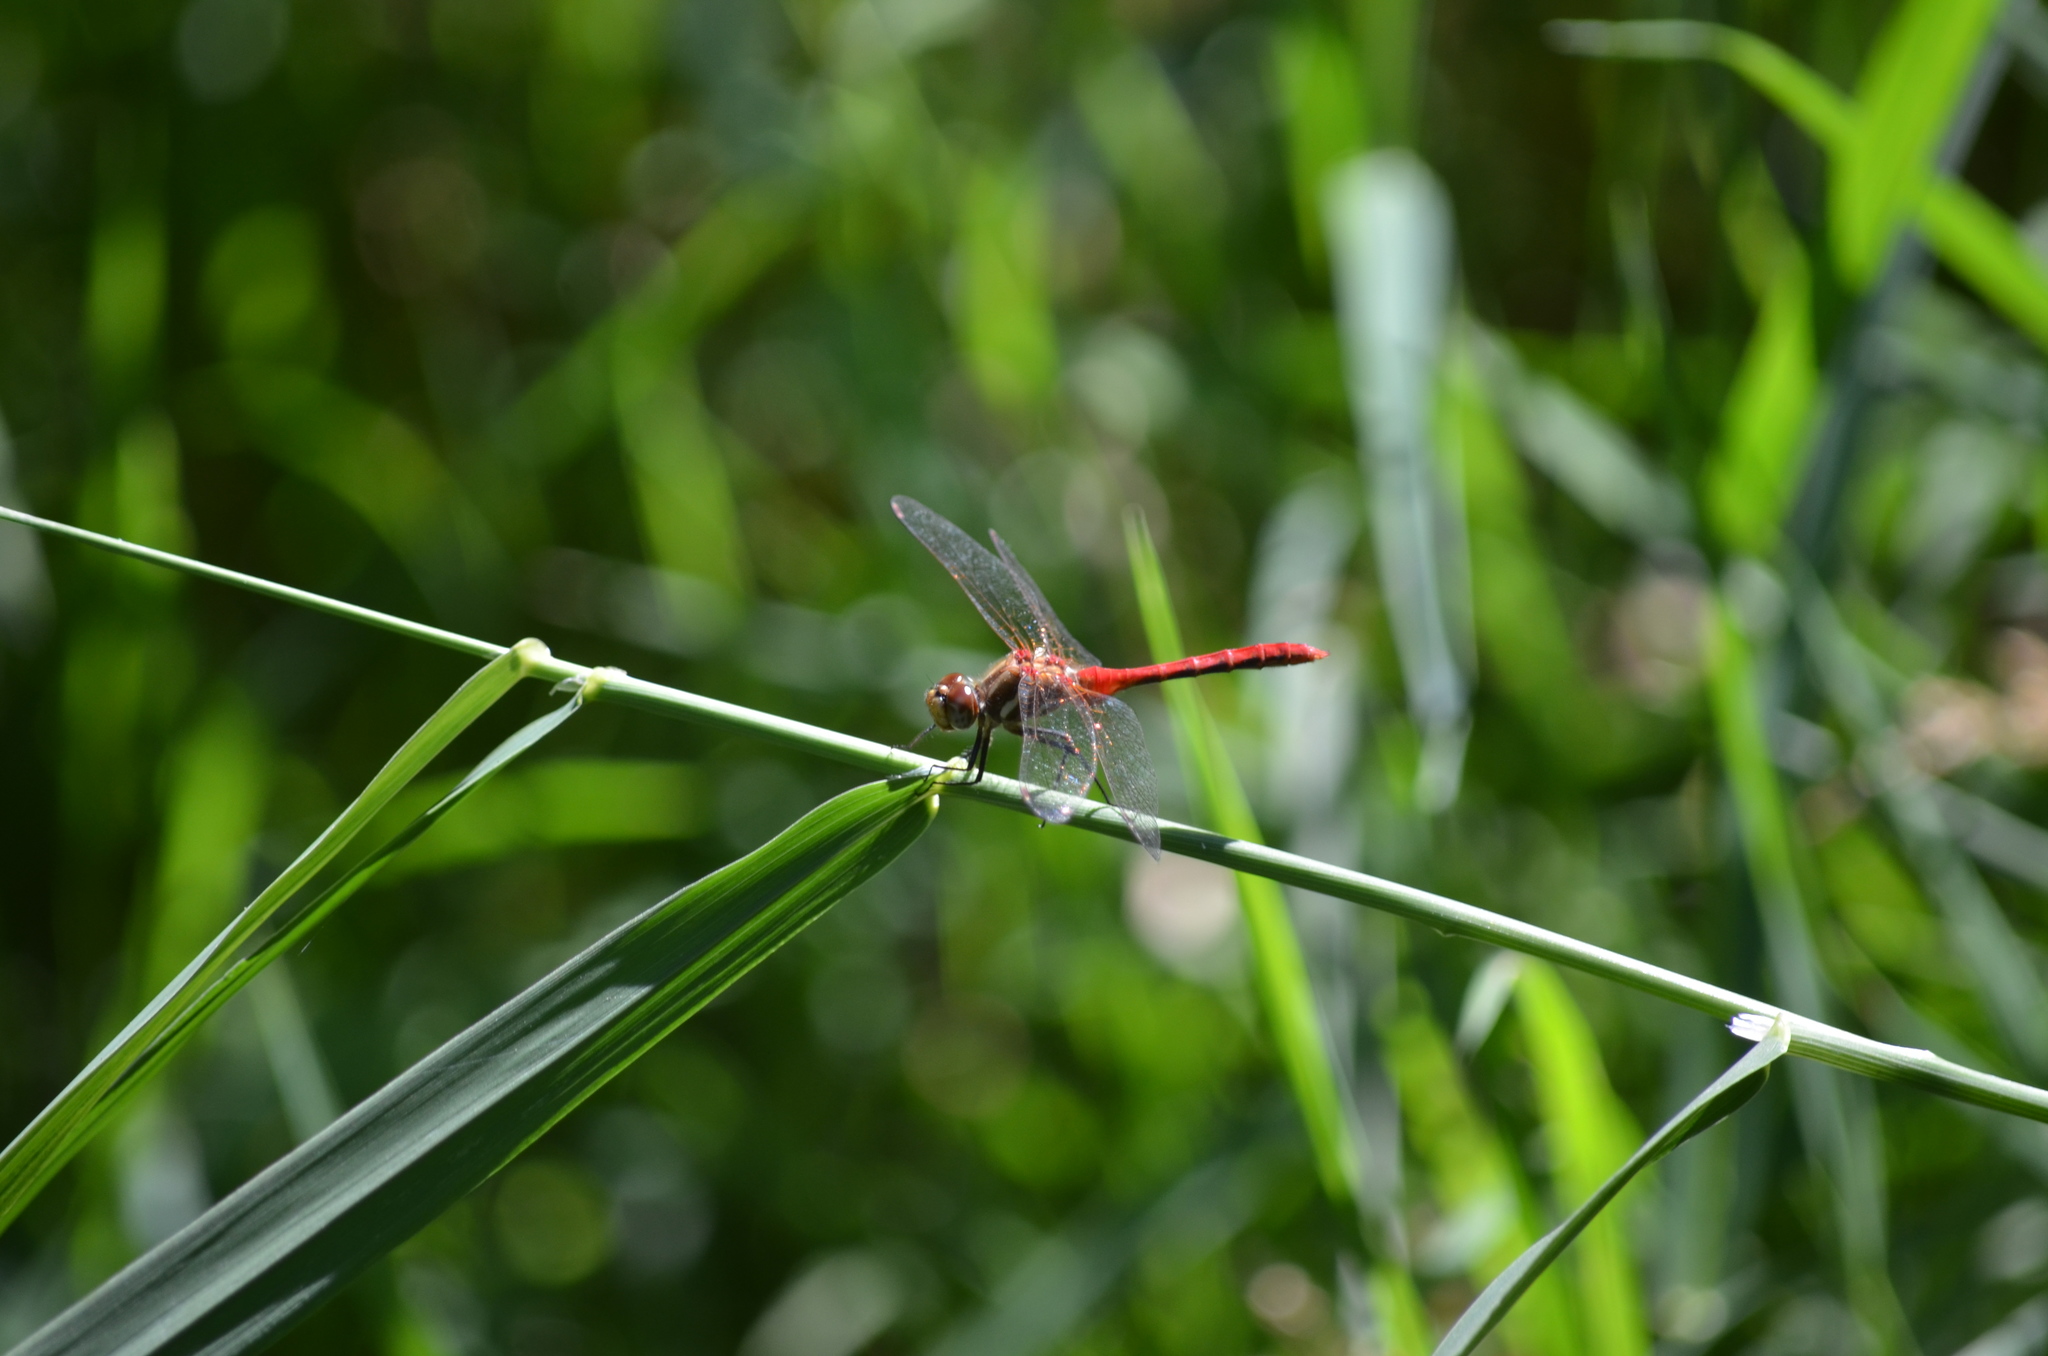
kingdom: Animalia
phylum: Arthropoda
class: Insecta
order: Odonata
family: Libellulidae
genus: Sympetrum
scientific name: Sympetrum pallipes
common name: Striped meadowhawk
